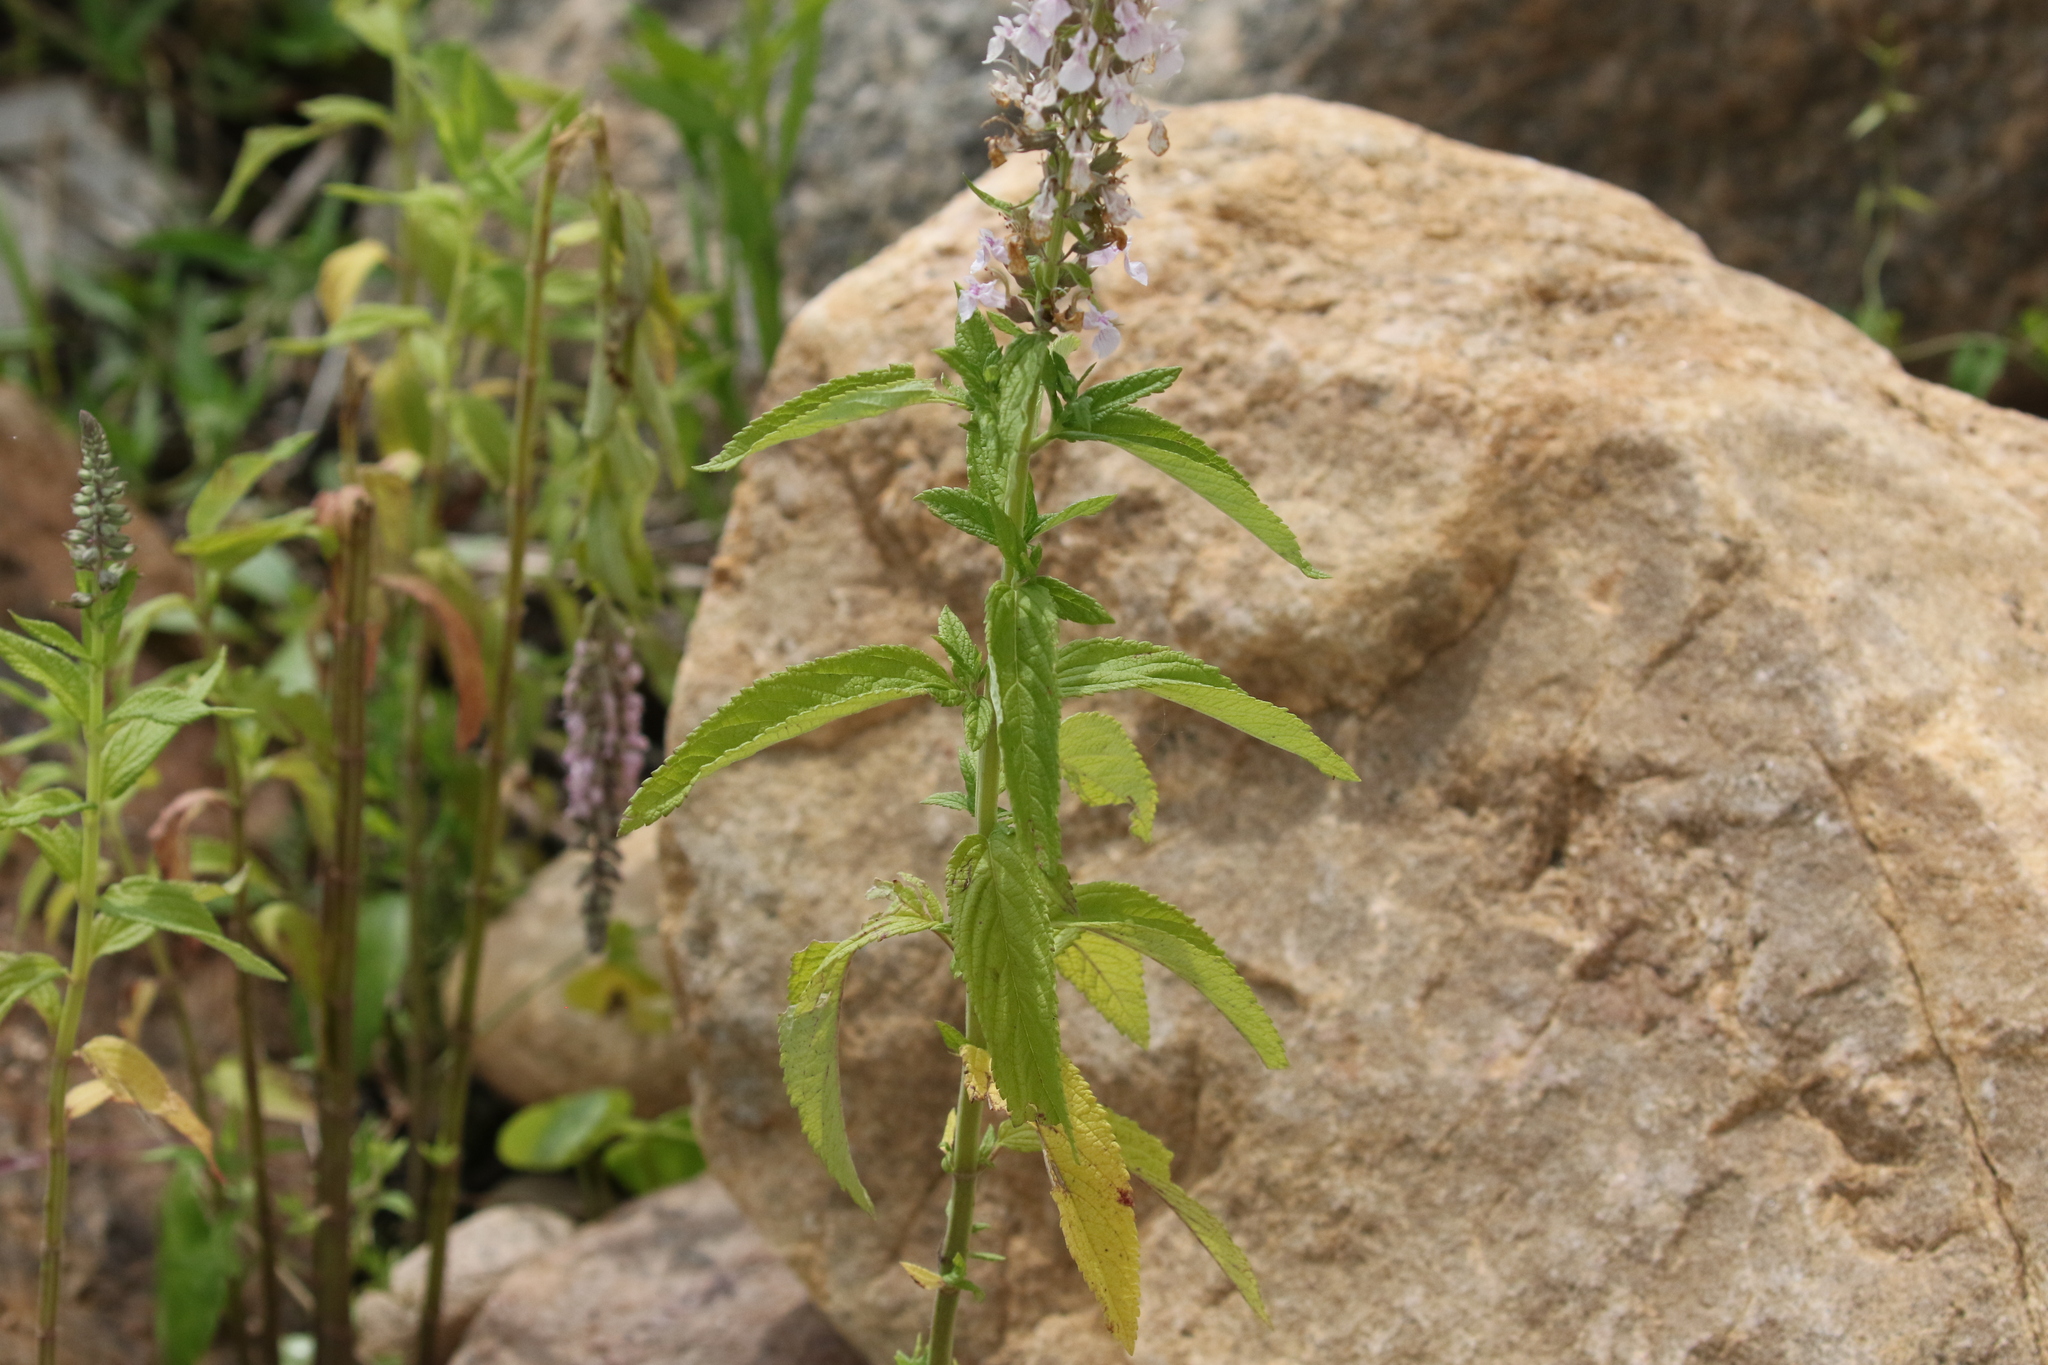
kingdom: Plantae
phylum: Tracheophyta
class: Magnoliopsida
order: Lamiales
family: Lamiaceae
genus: Teucrium
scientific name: Teucrium canadense
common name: American germander
